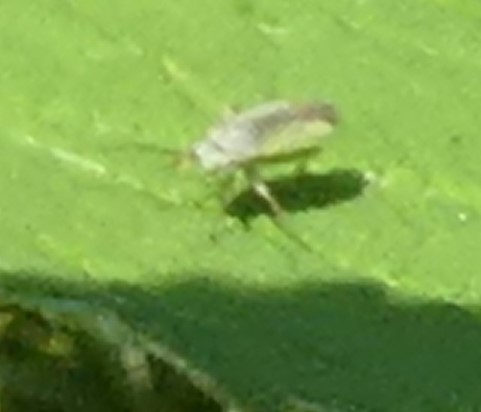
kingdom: Animalia
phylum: Arthropoda
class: Insecta
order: Hemiptera
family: Miridae
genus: Platycranus
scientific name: Platycranus bicolor
